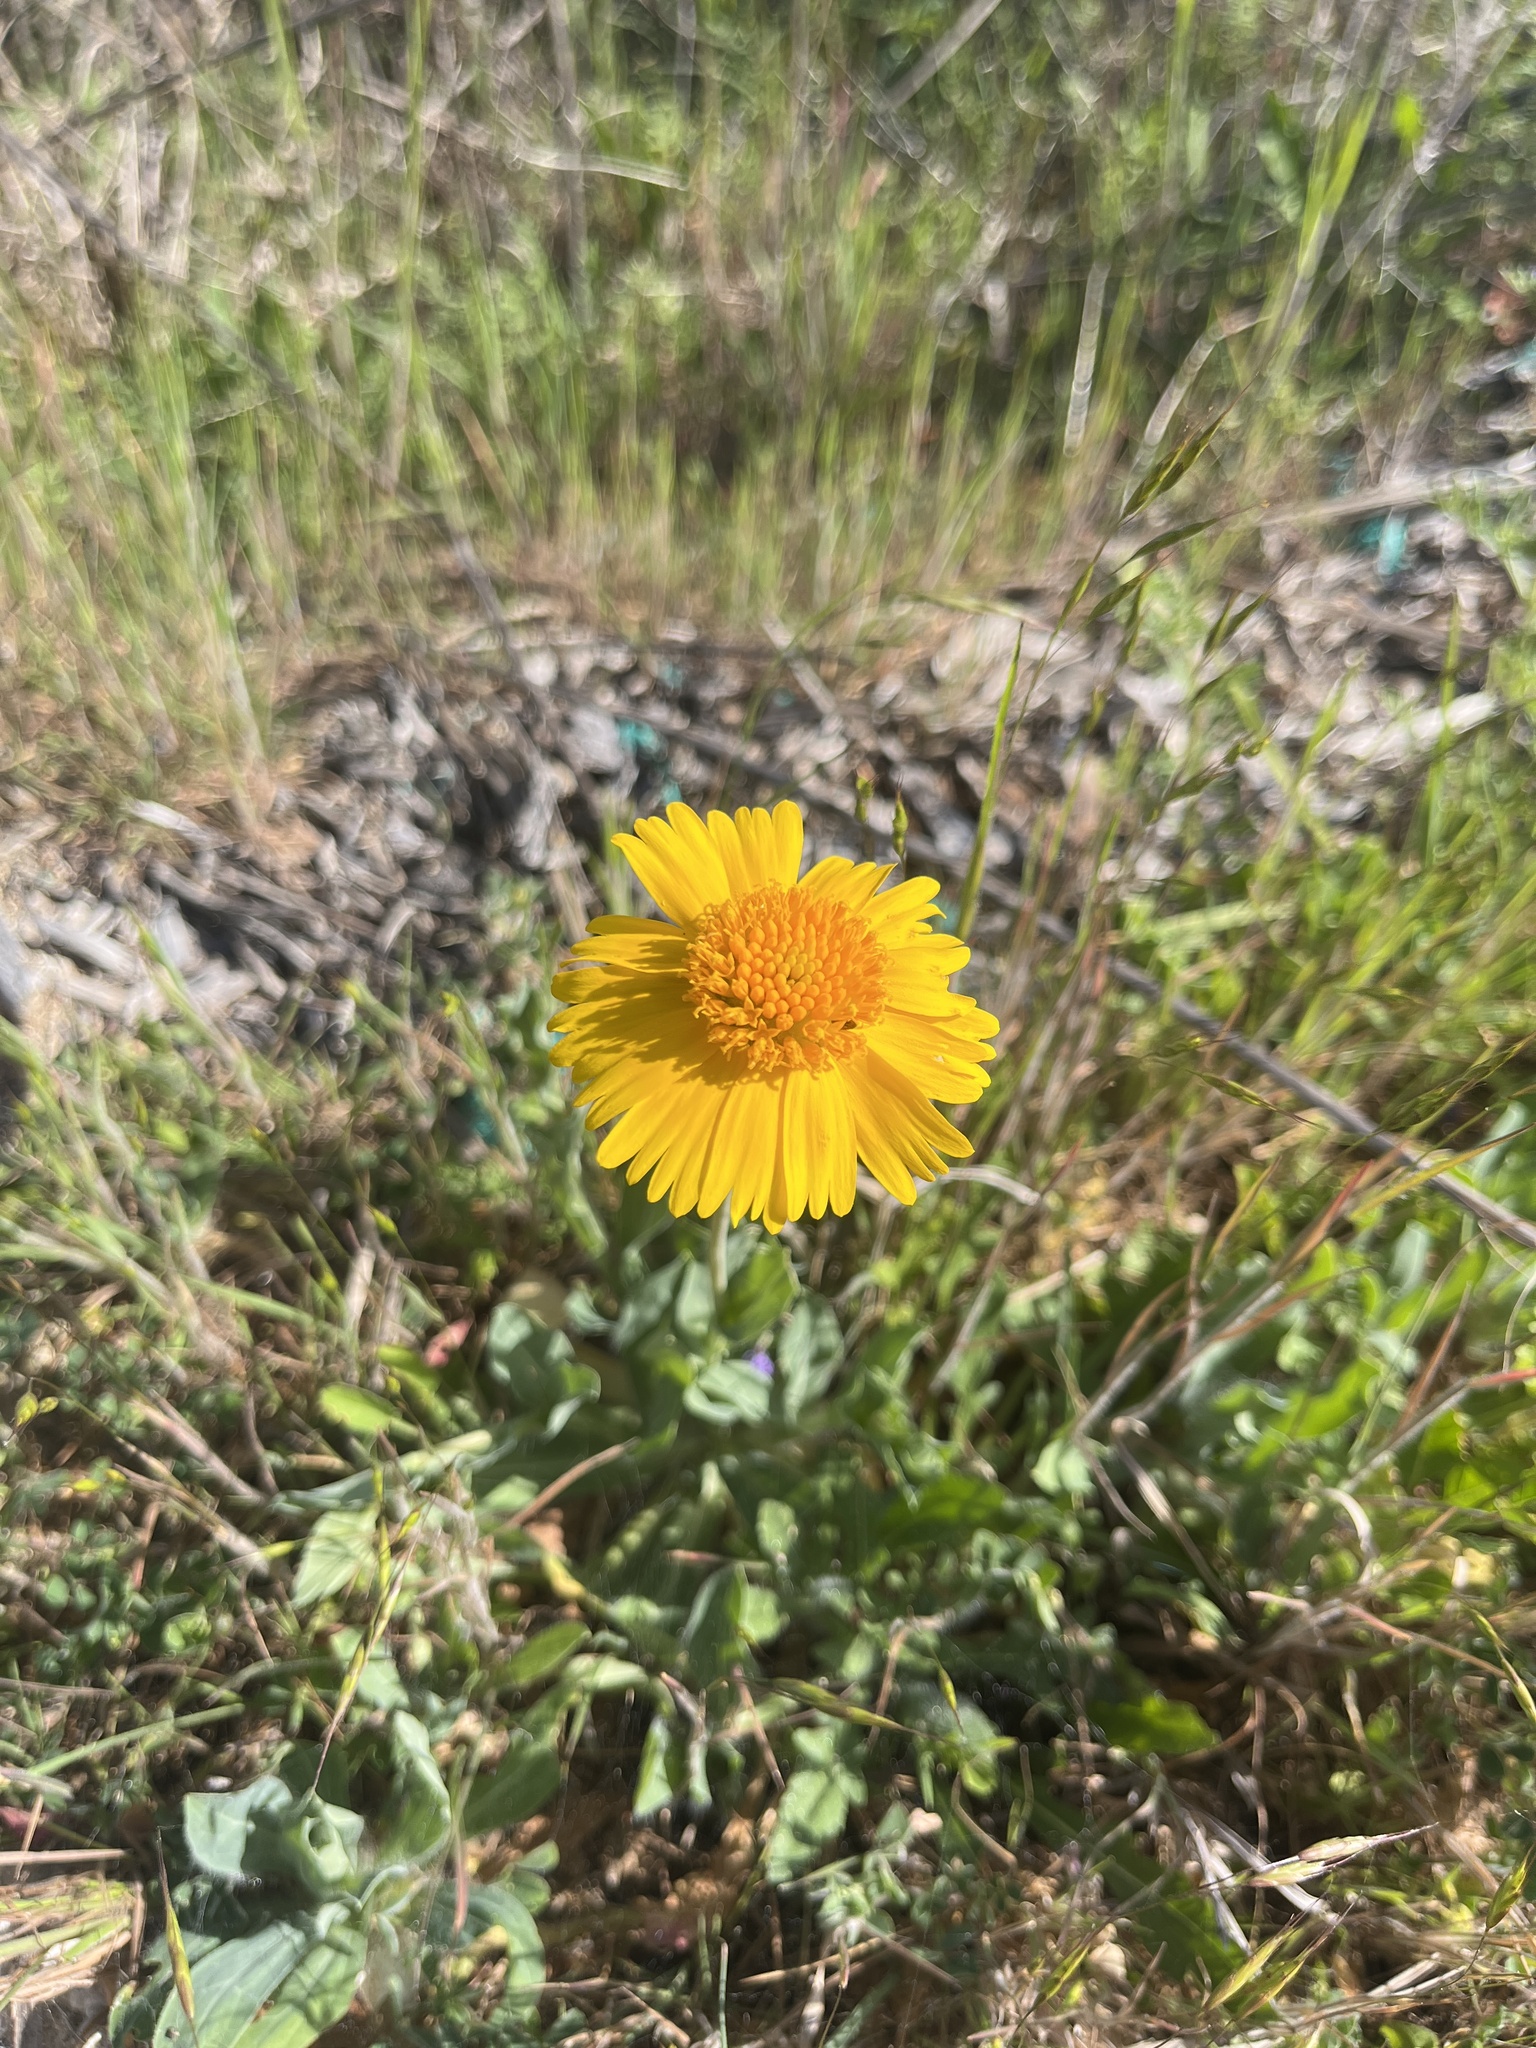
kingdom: Plantae
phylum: Tracheophyta
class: Magnoliopsida
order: Asterales
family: Asteraceae
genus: Amblyolepis
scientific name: Amblyolepis setigera
